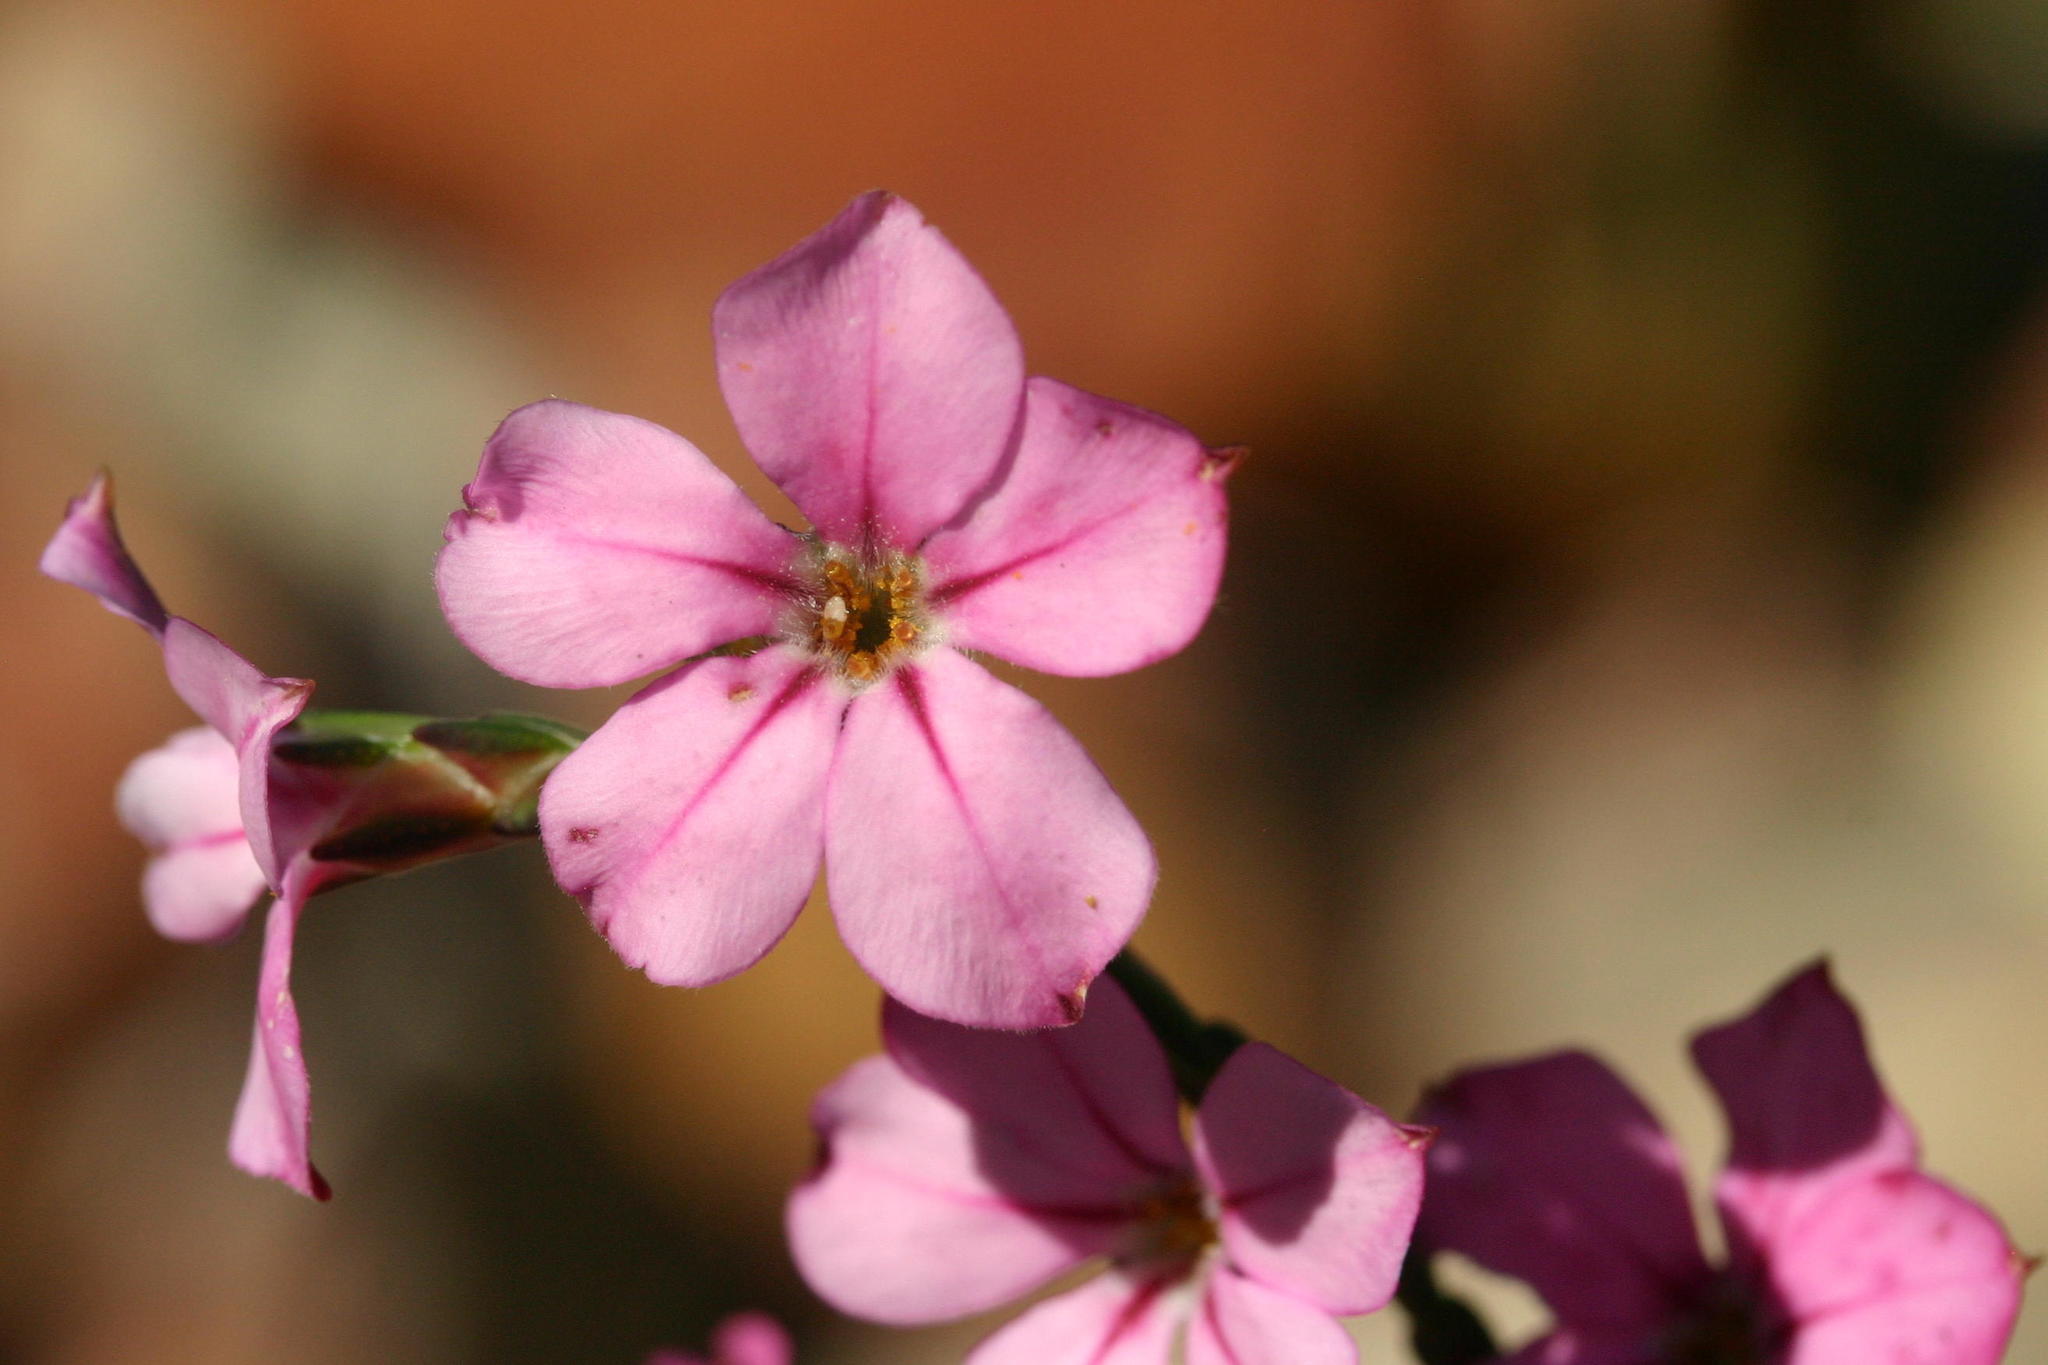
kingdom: Plantae
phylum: Tracheophyta
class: Magnoliopsida
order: Sapindales
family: Rutaceae
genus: Acmadenia
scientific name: Acmadenia nivenii
